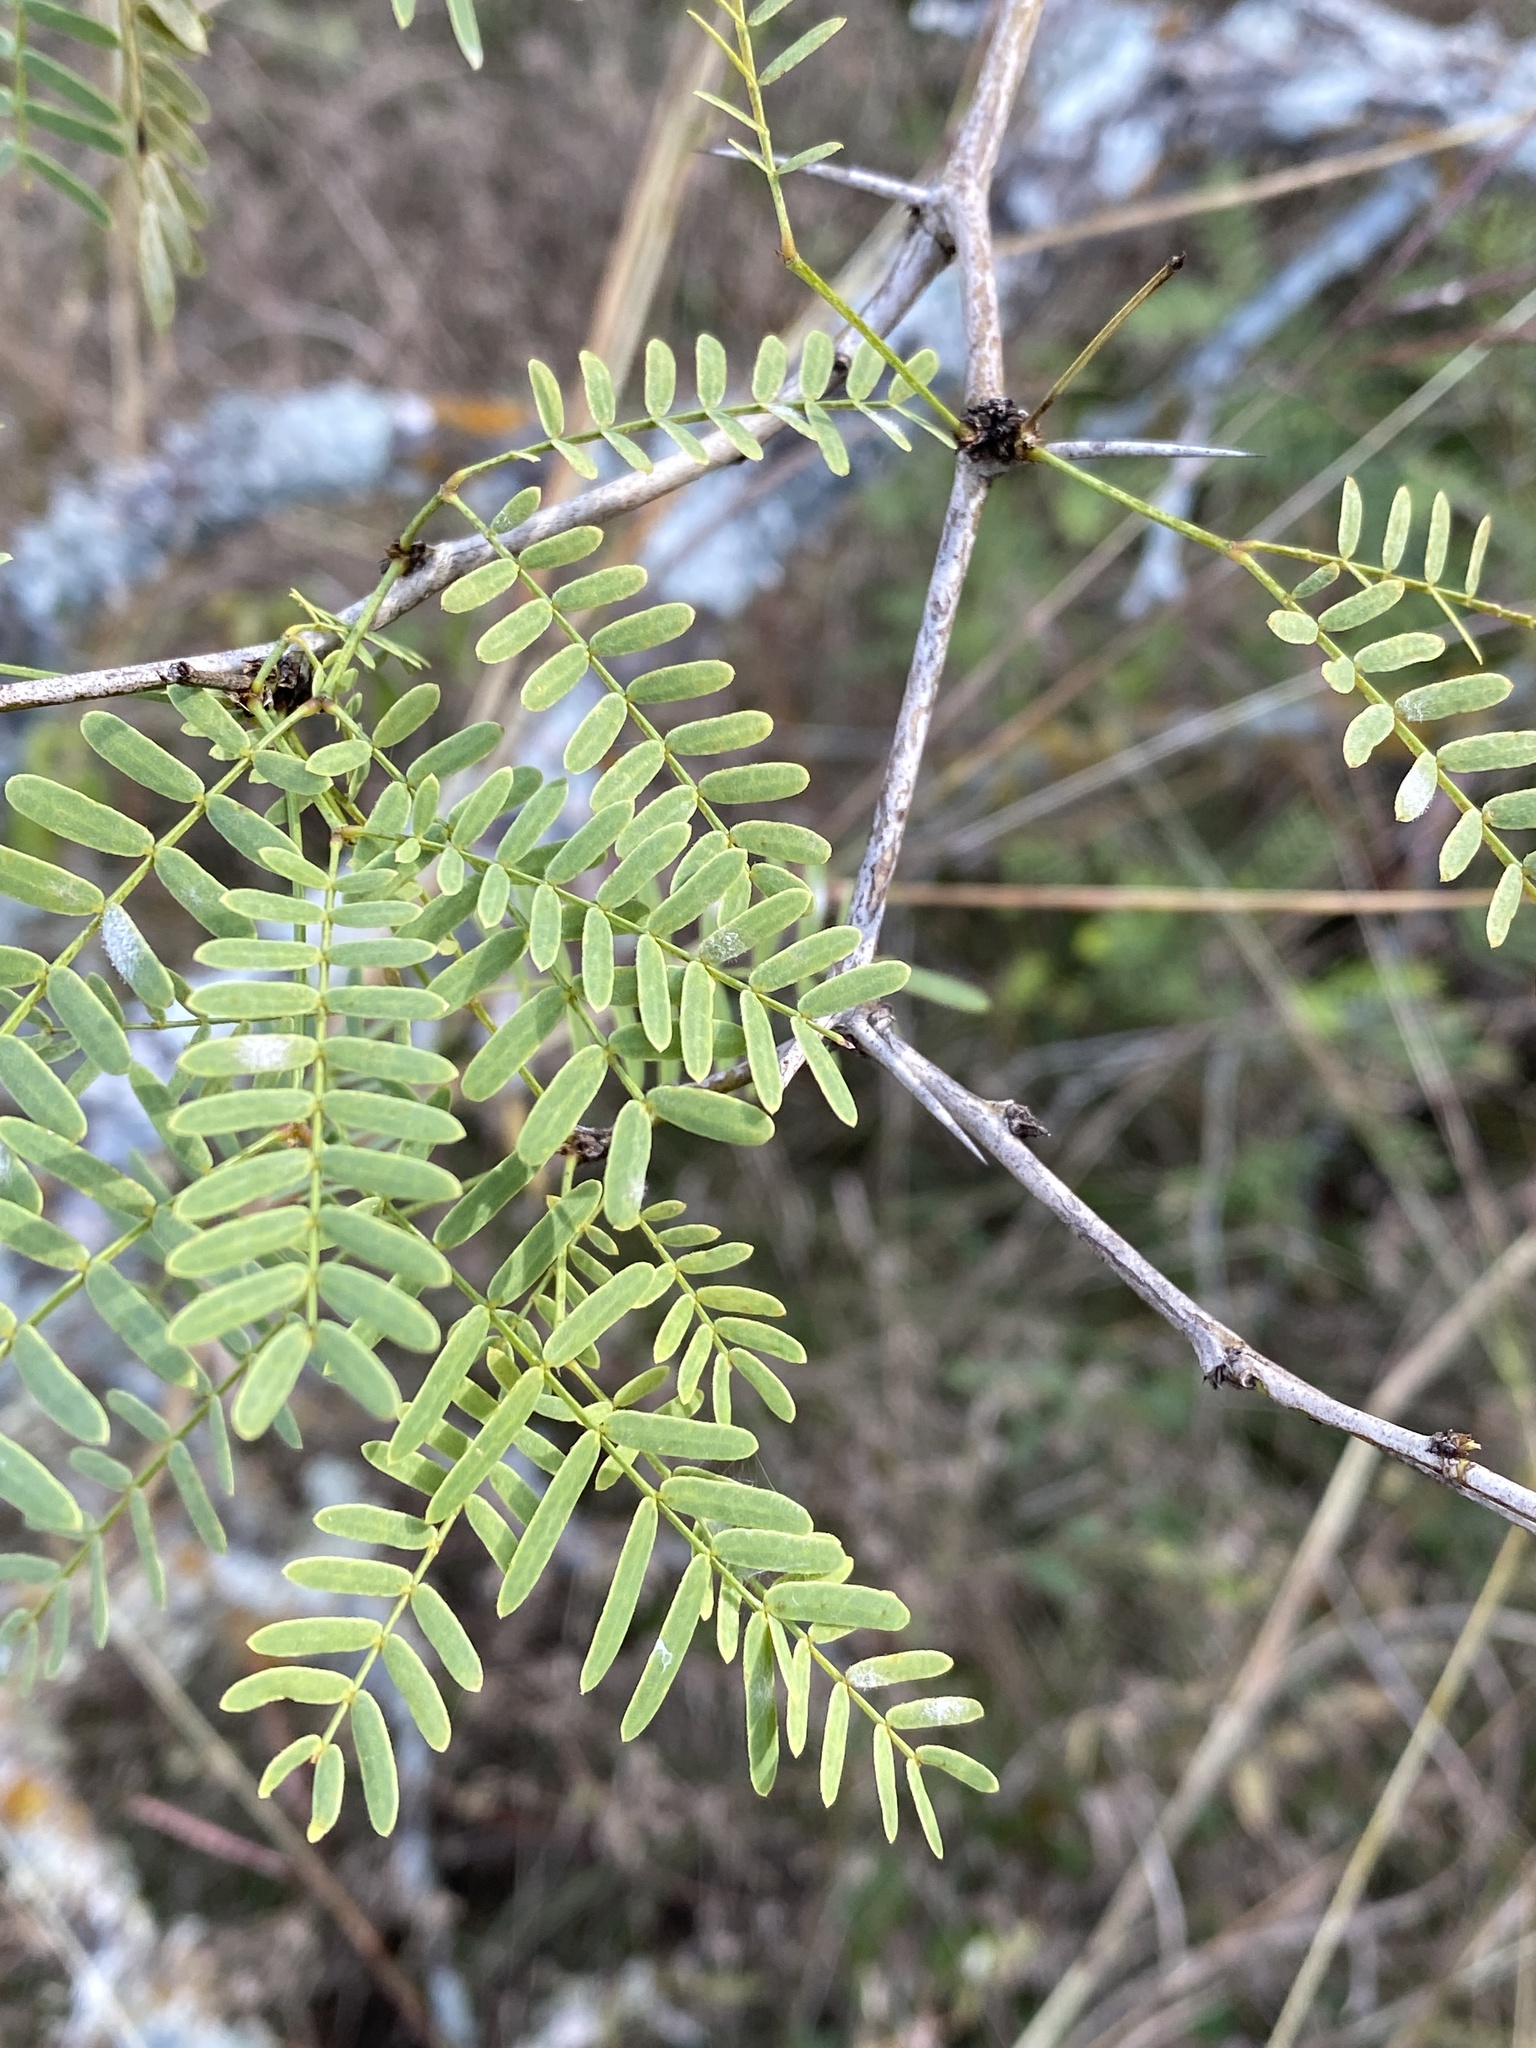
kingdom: Plantae
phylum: Tracheophyta
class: Magnoliopsida
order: Fabales
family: Fabaceae
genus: Prosopis
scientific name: Prosopis glandulosa
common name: Honey mesquite
